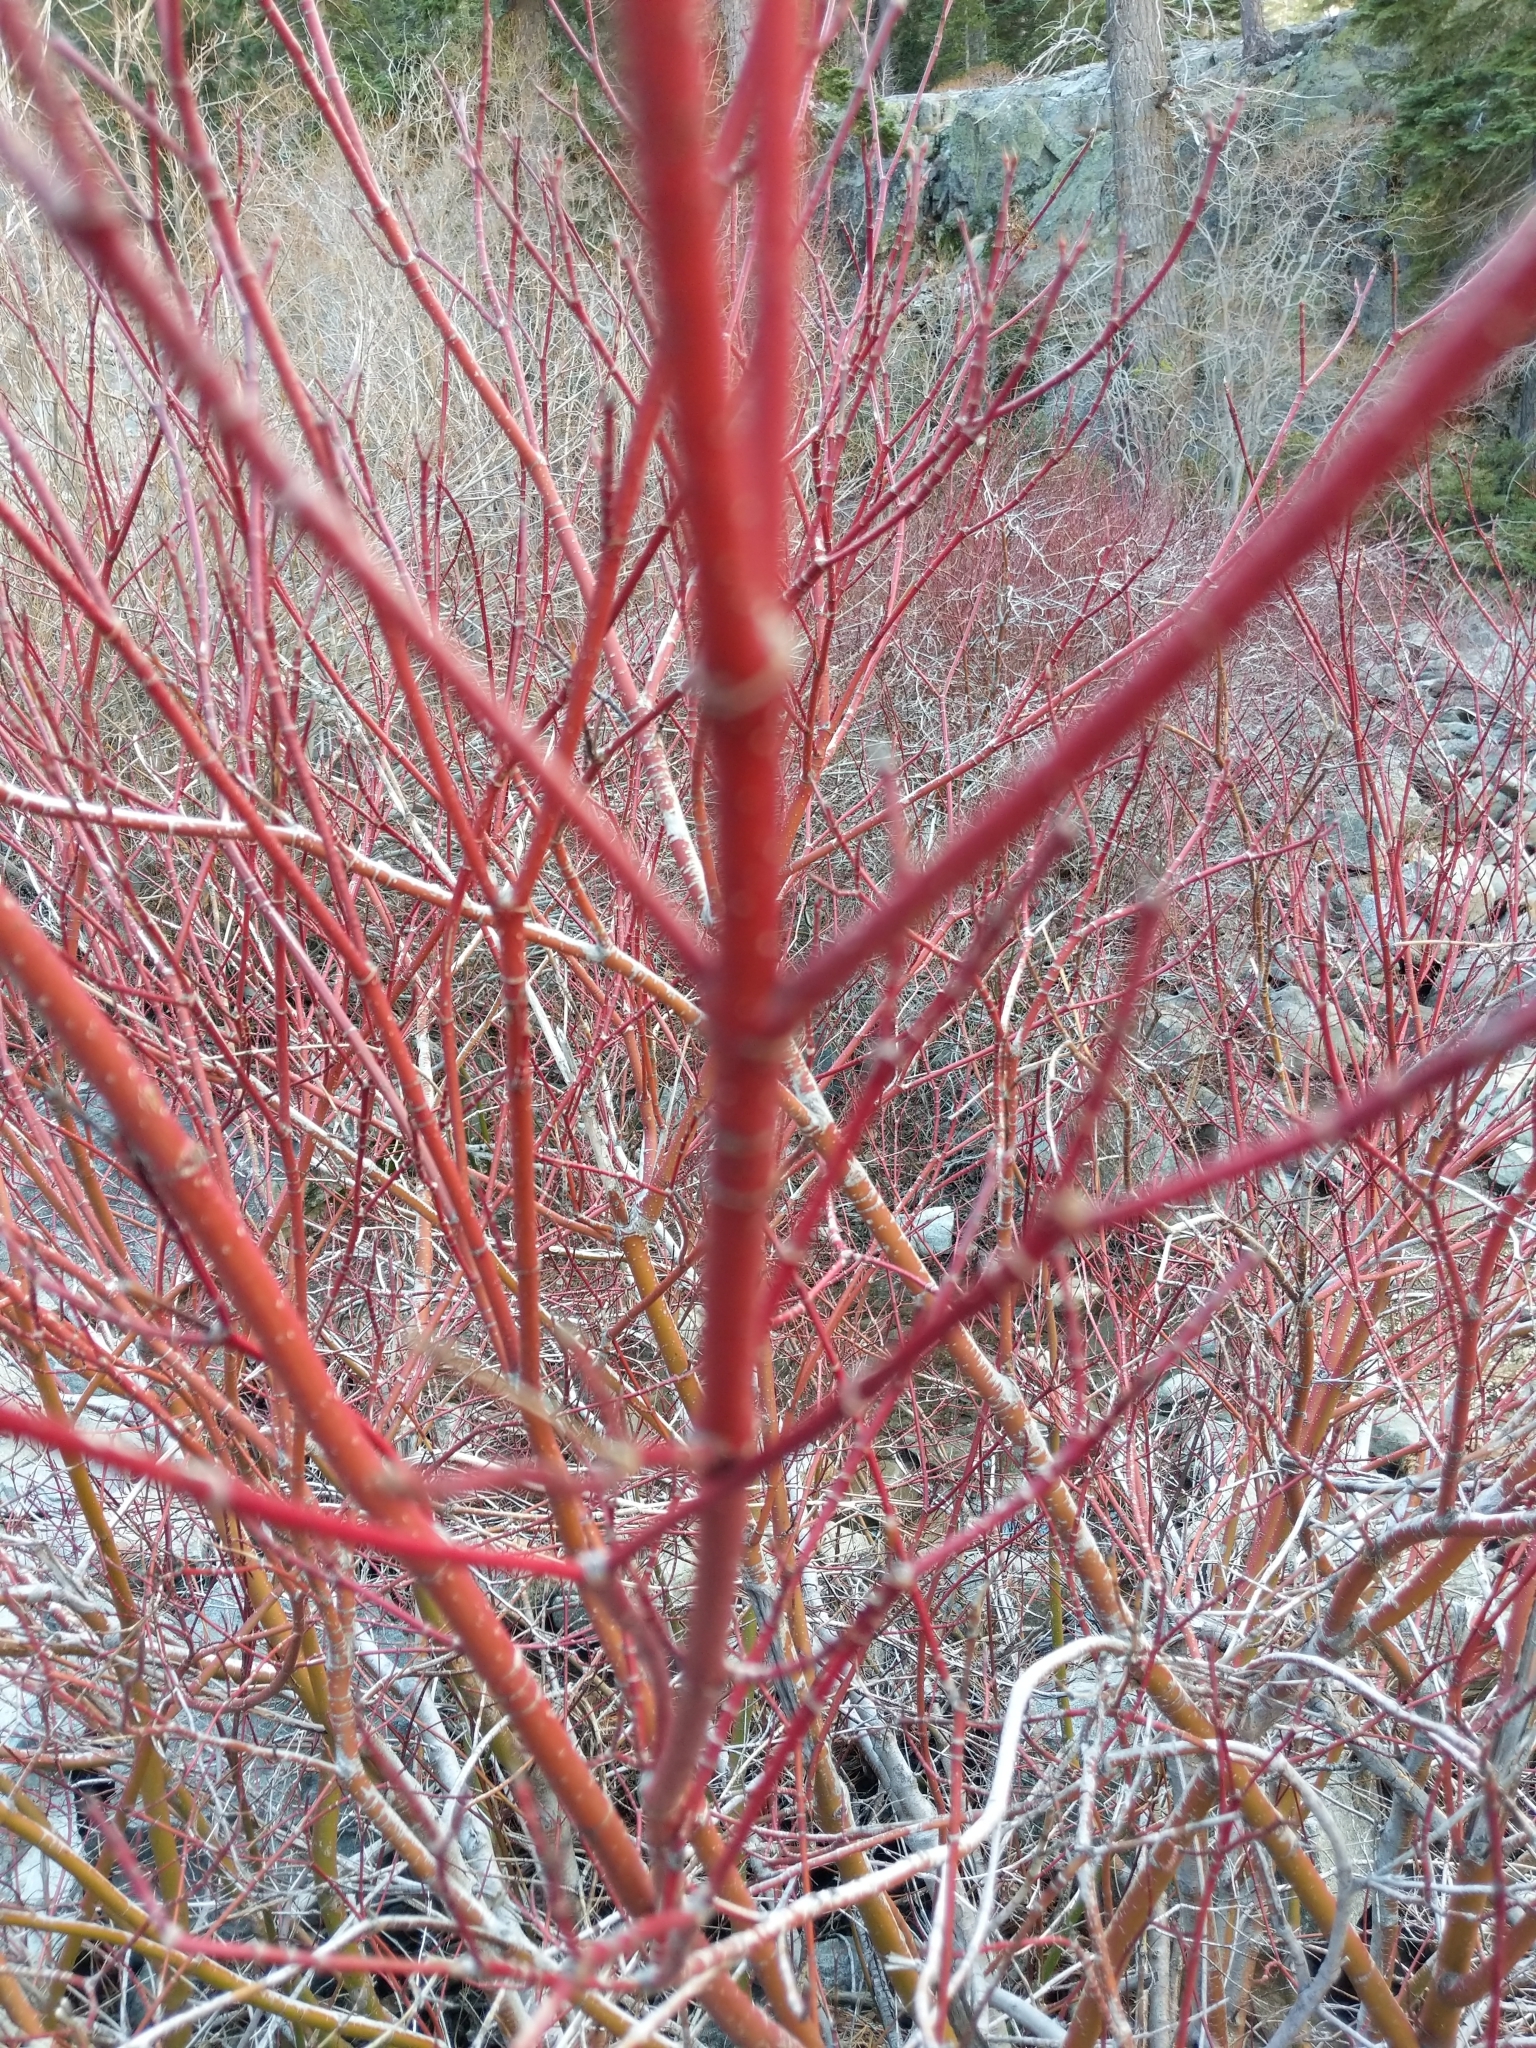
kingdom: Plantae
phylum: Tracheophyta
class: Magnoliopsida
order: Cornales
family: Cornaceae
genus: Cornus
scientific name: Cornus sericea
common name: Red-osier dogwood
